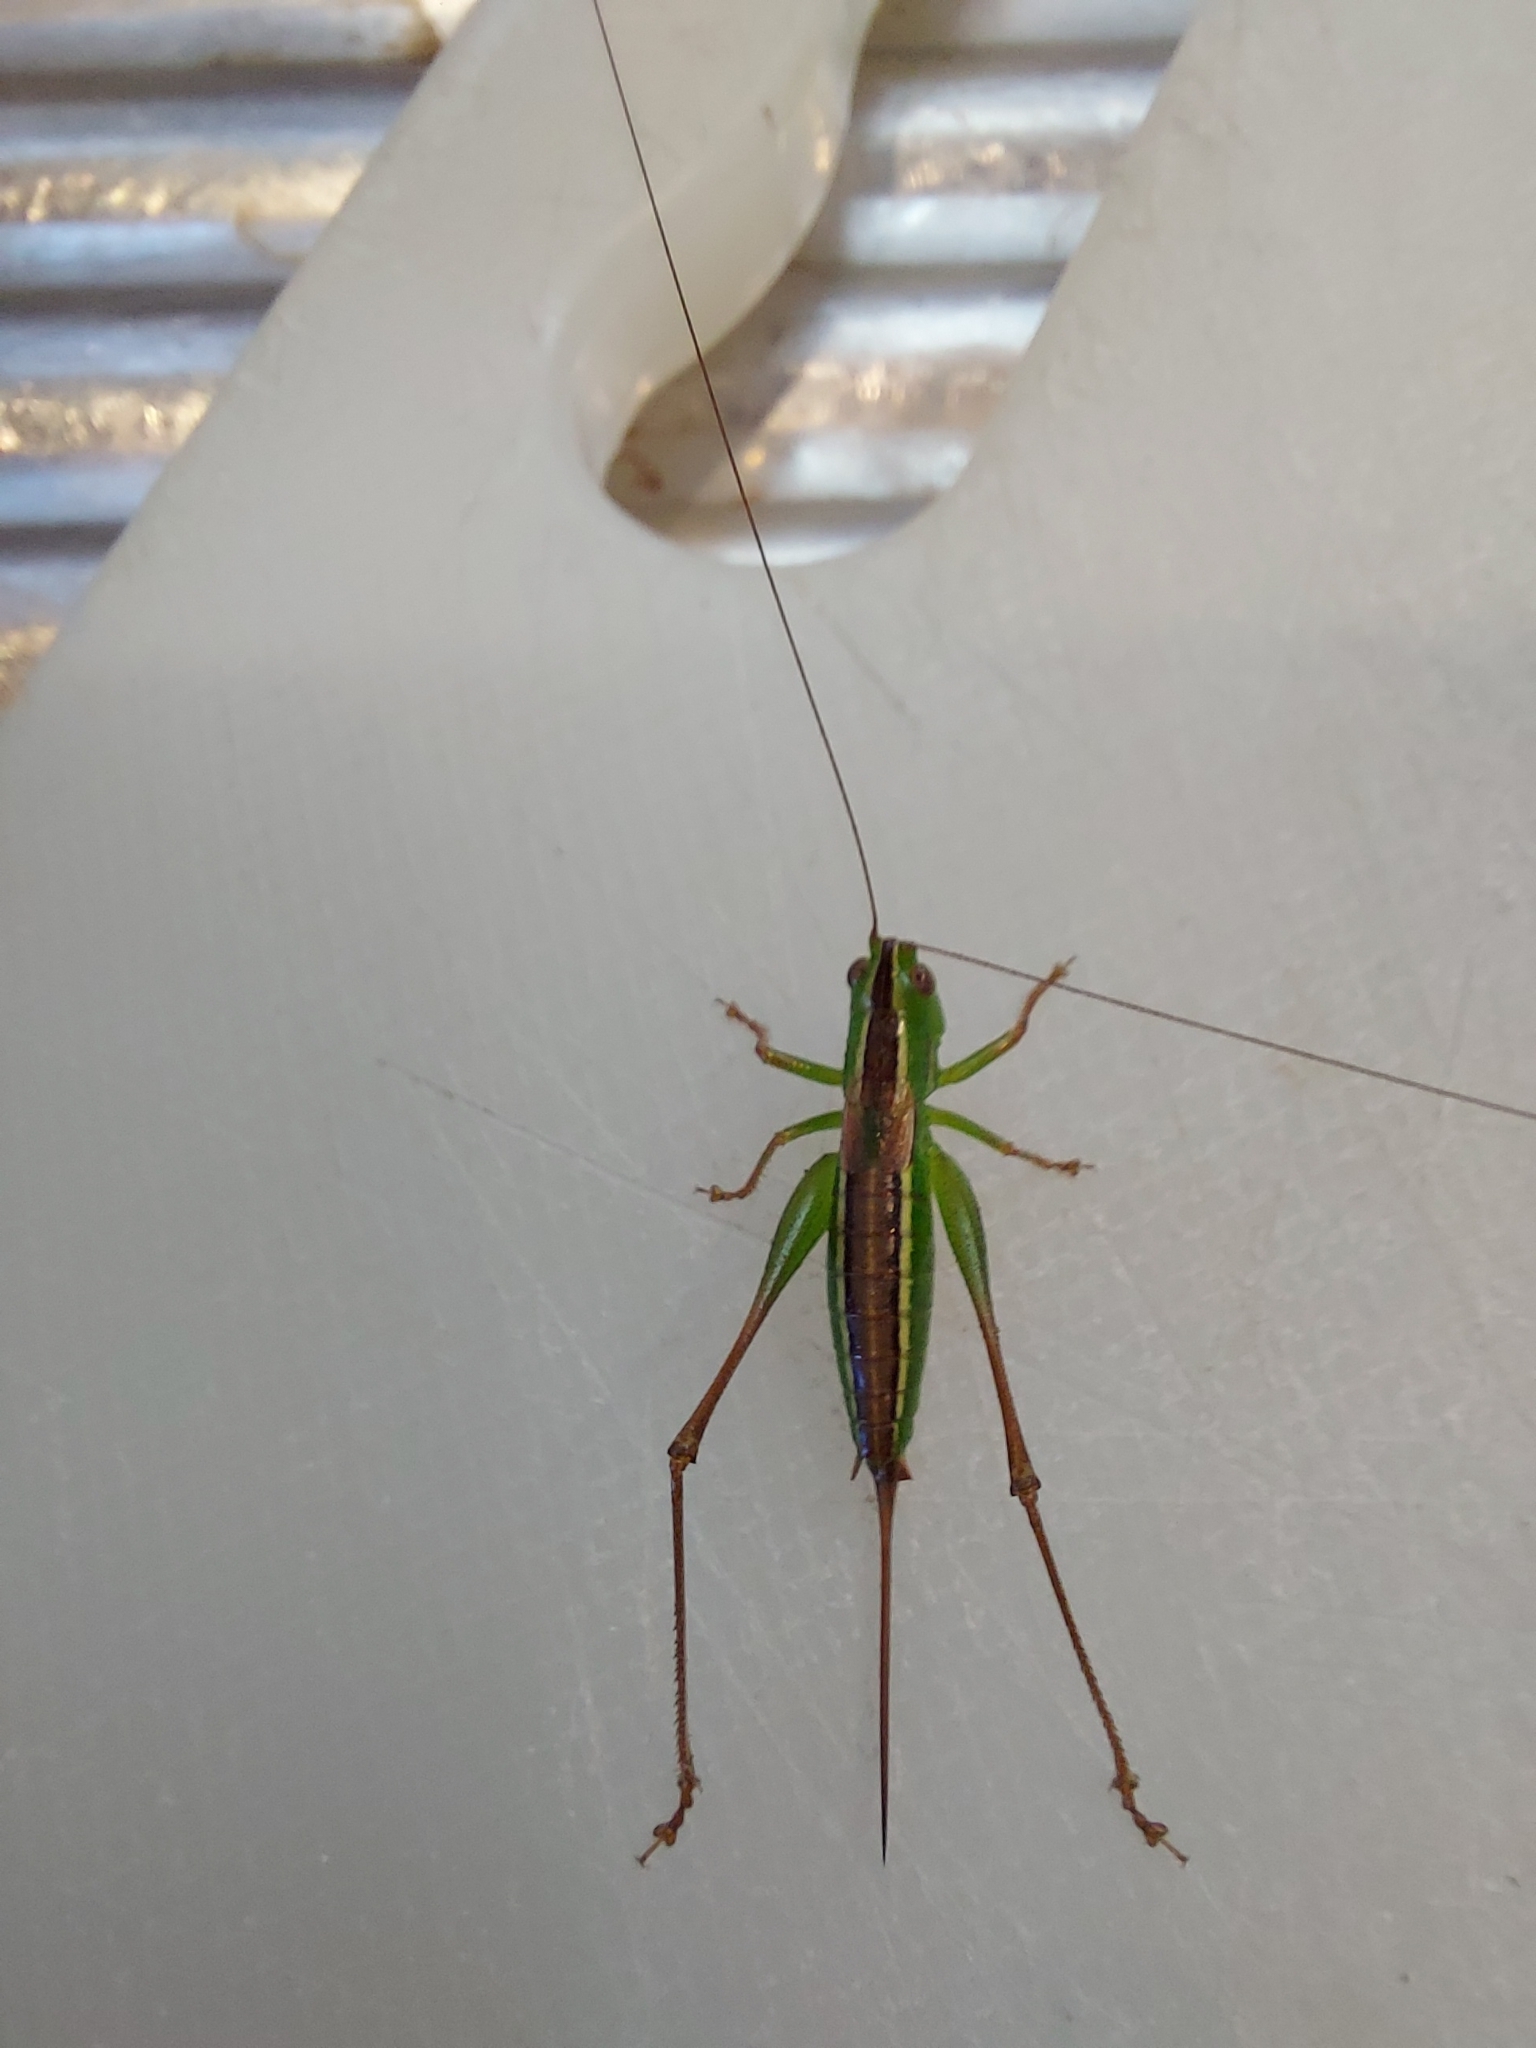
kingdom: Animalia
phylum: Arthropoda
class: Insecta
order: Orthoptera
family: Tettigoniidae
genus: Conocephalus
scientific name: Conocephalus bilineatus
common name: Small meadow katydid
